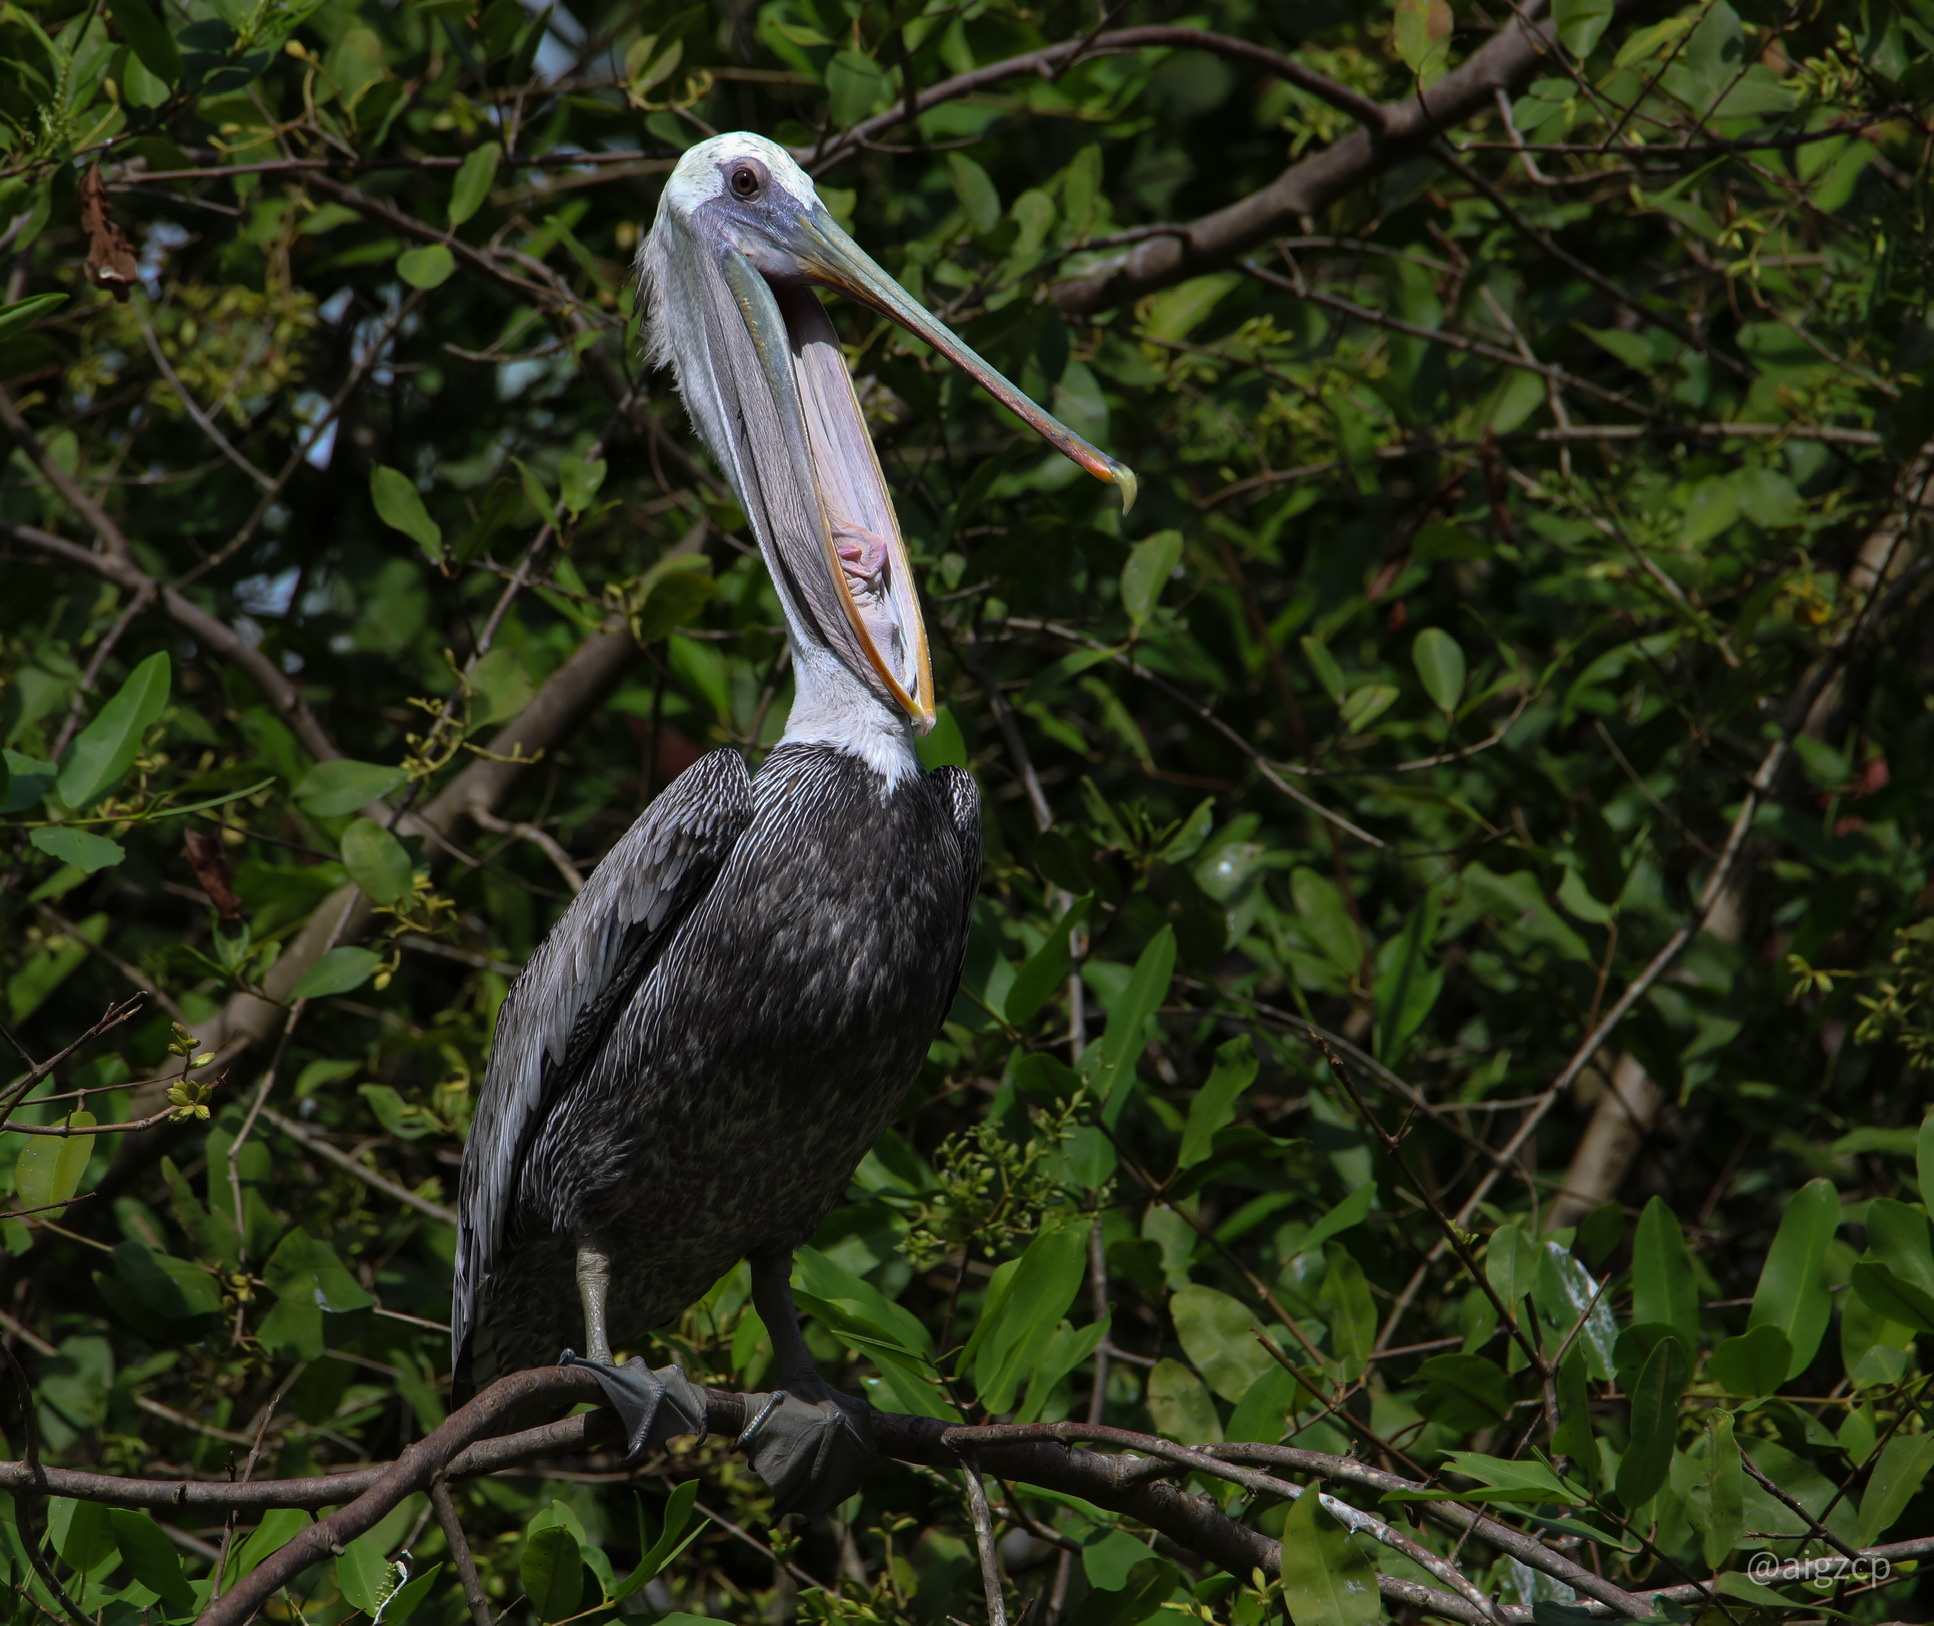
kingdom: Animalia
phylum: Chordata
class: Aves
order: Pelecaniformes
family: Pelecanidae
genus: Pelecanus
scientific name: Pelecanus occidentalis
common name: Brown pelican
